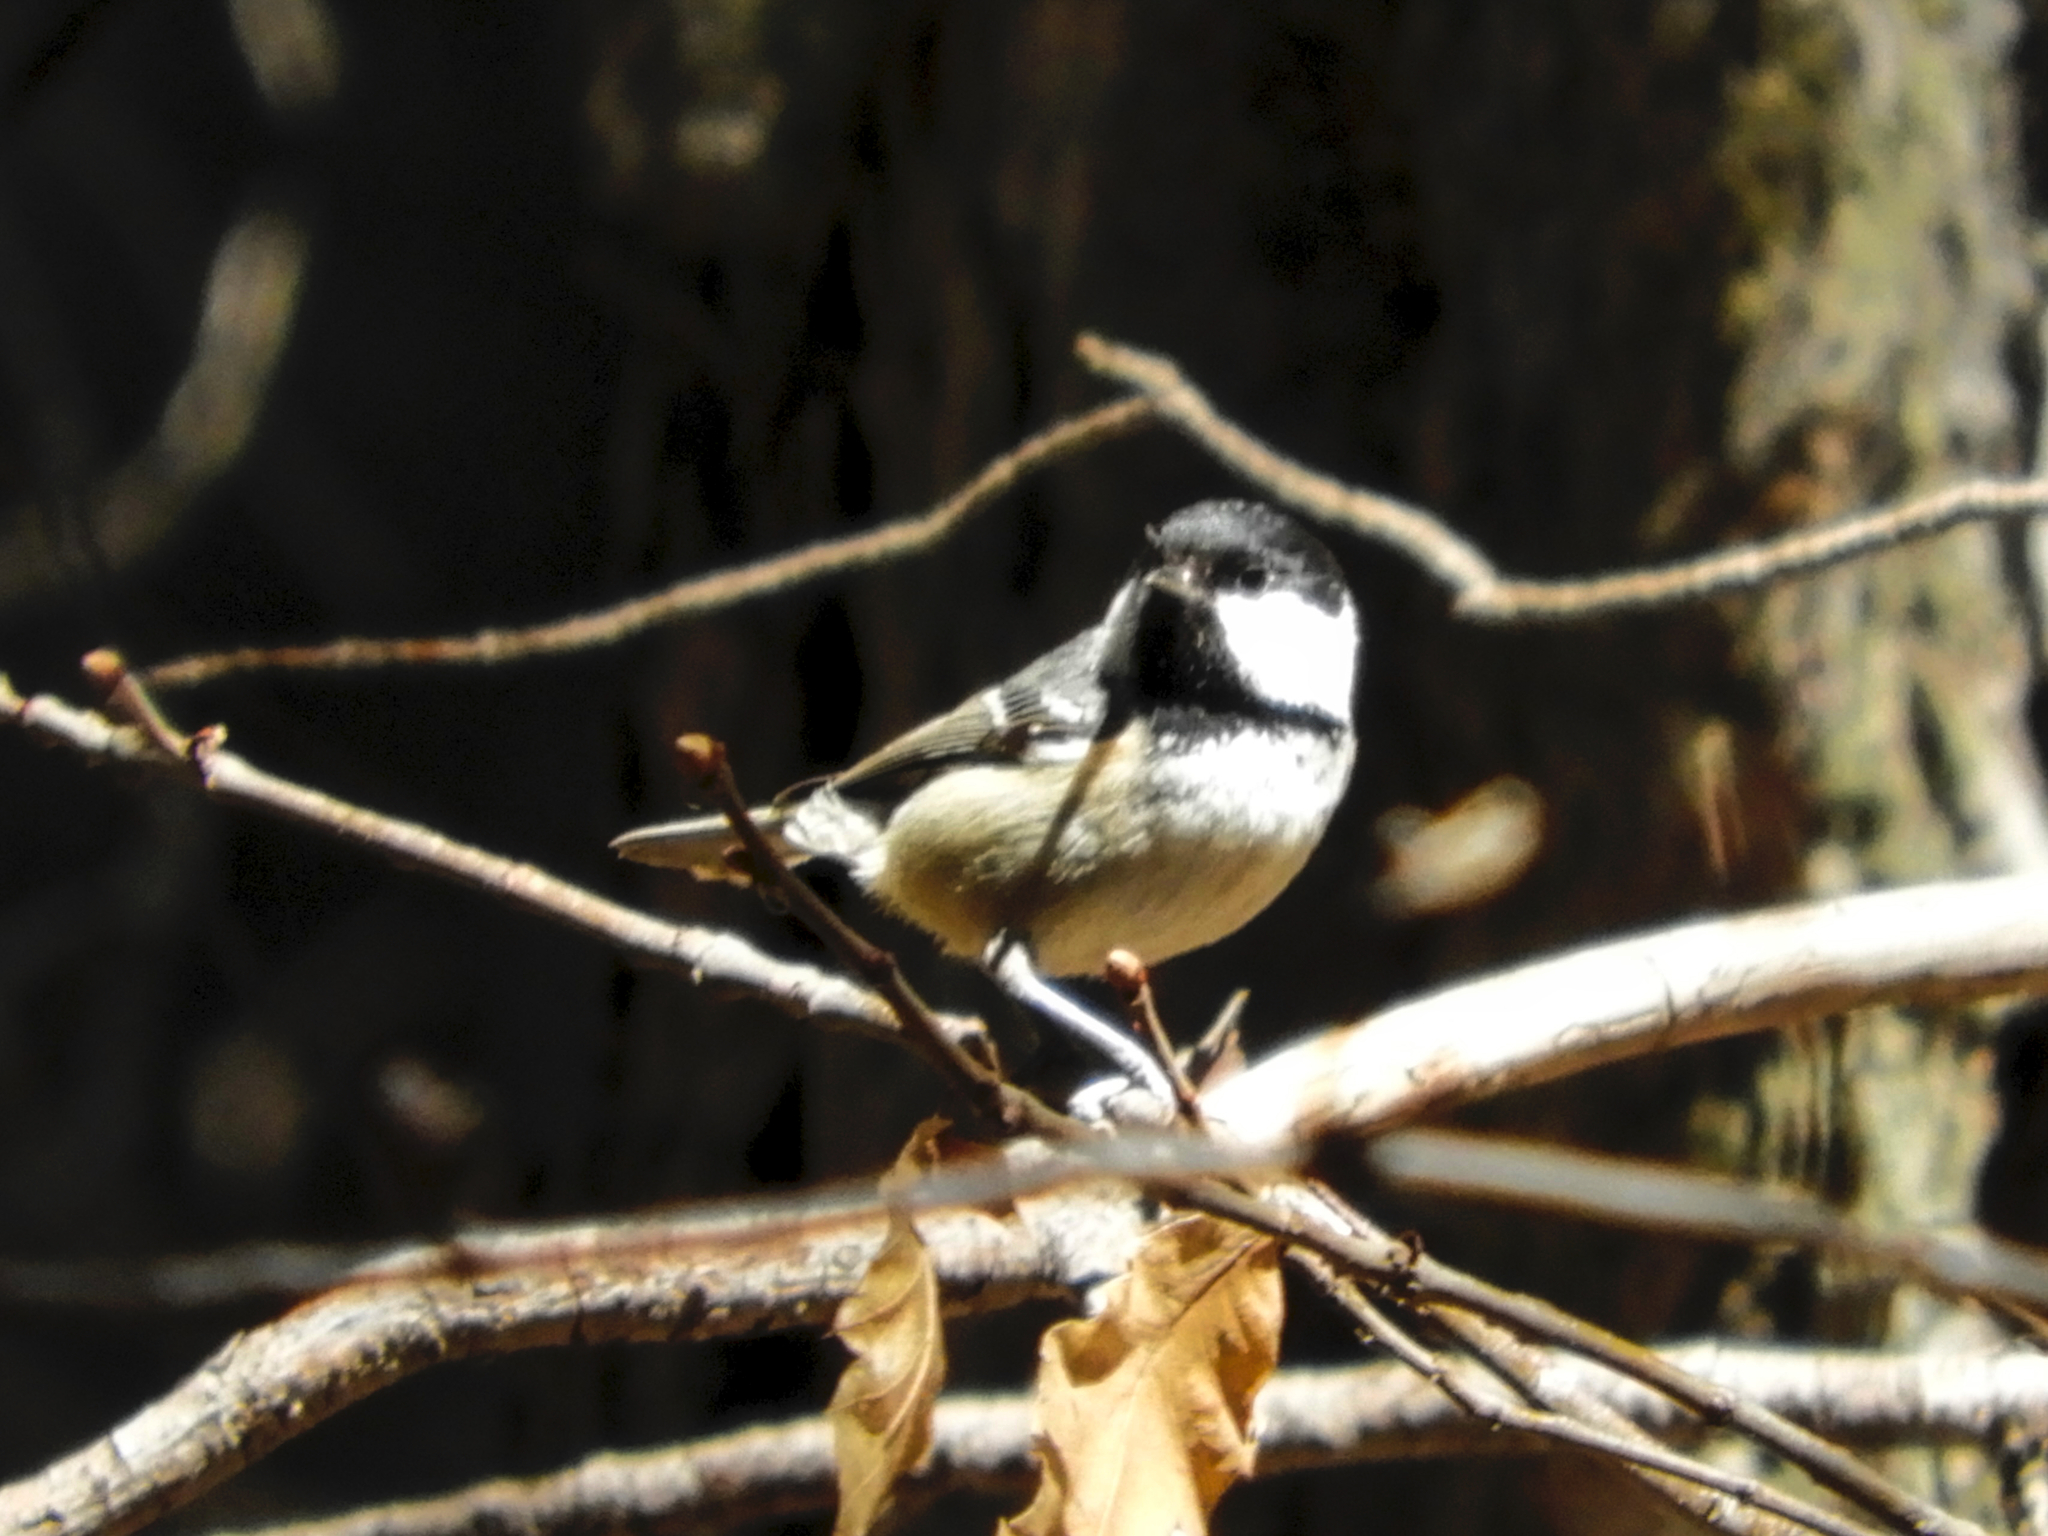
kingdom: Animalia
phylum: Chordata
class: Aves
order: Passeriformes
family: Paridae
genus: Periparus
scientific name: Periparus ater
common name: Coal tit
